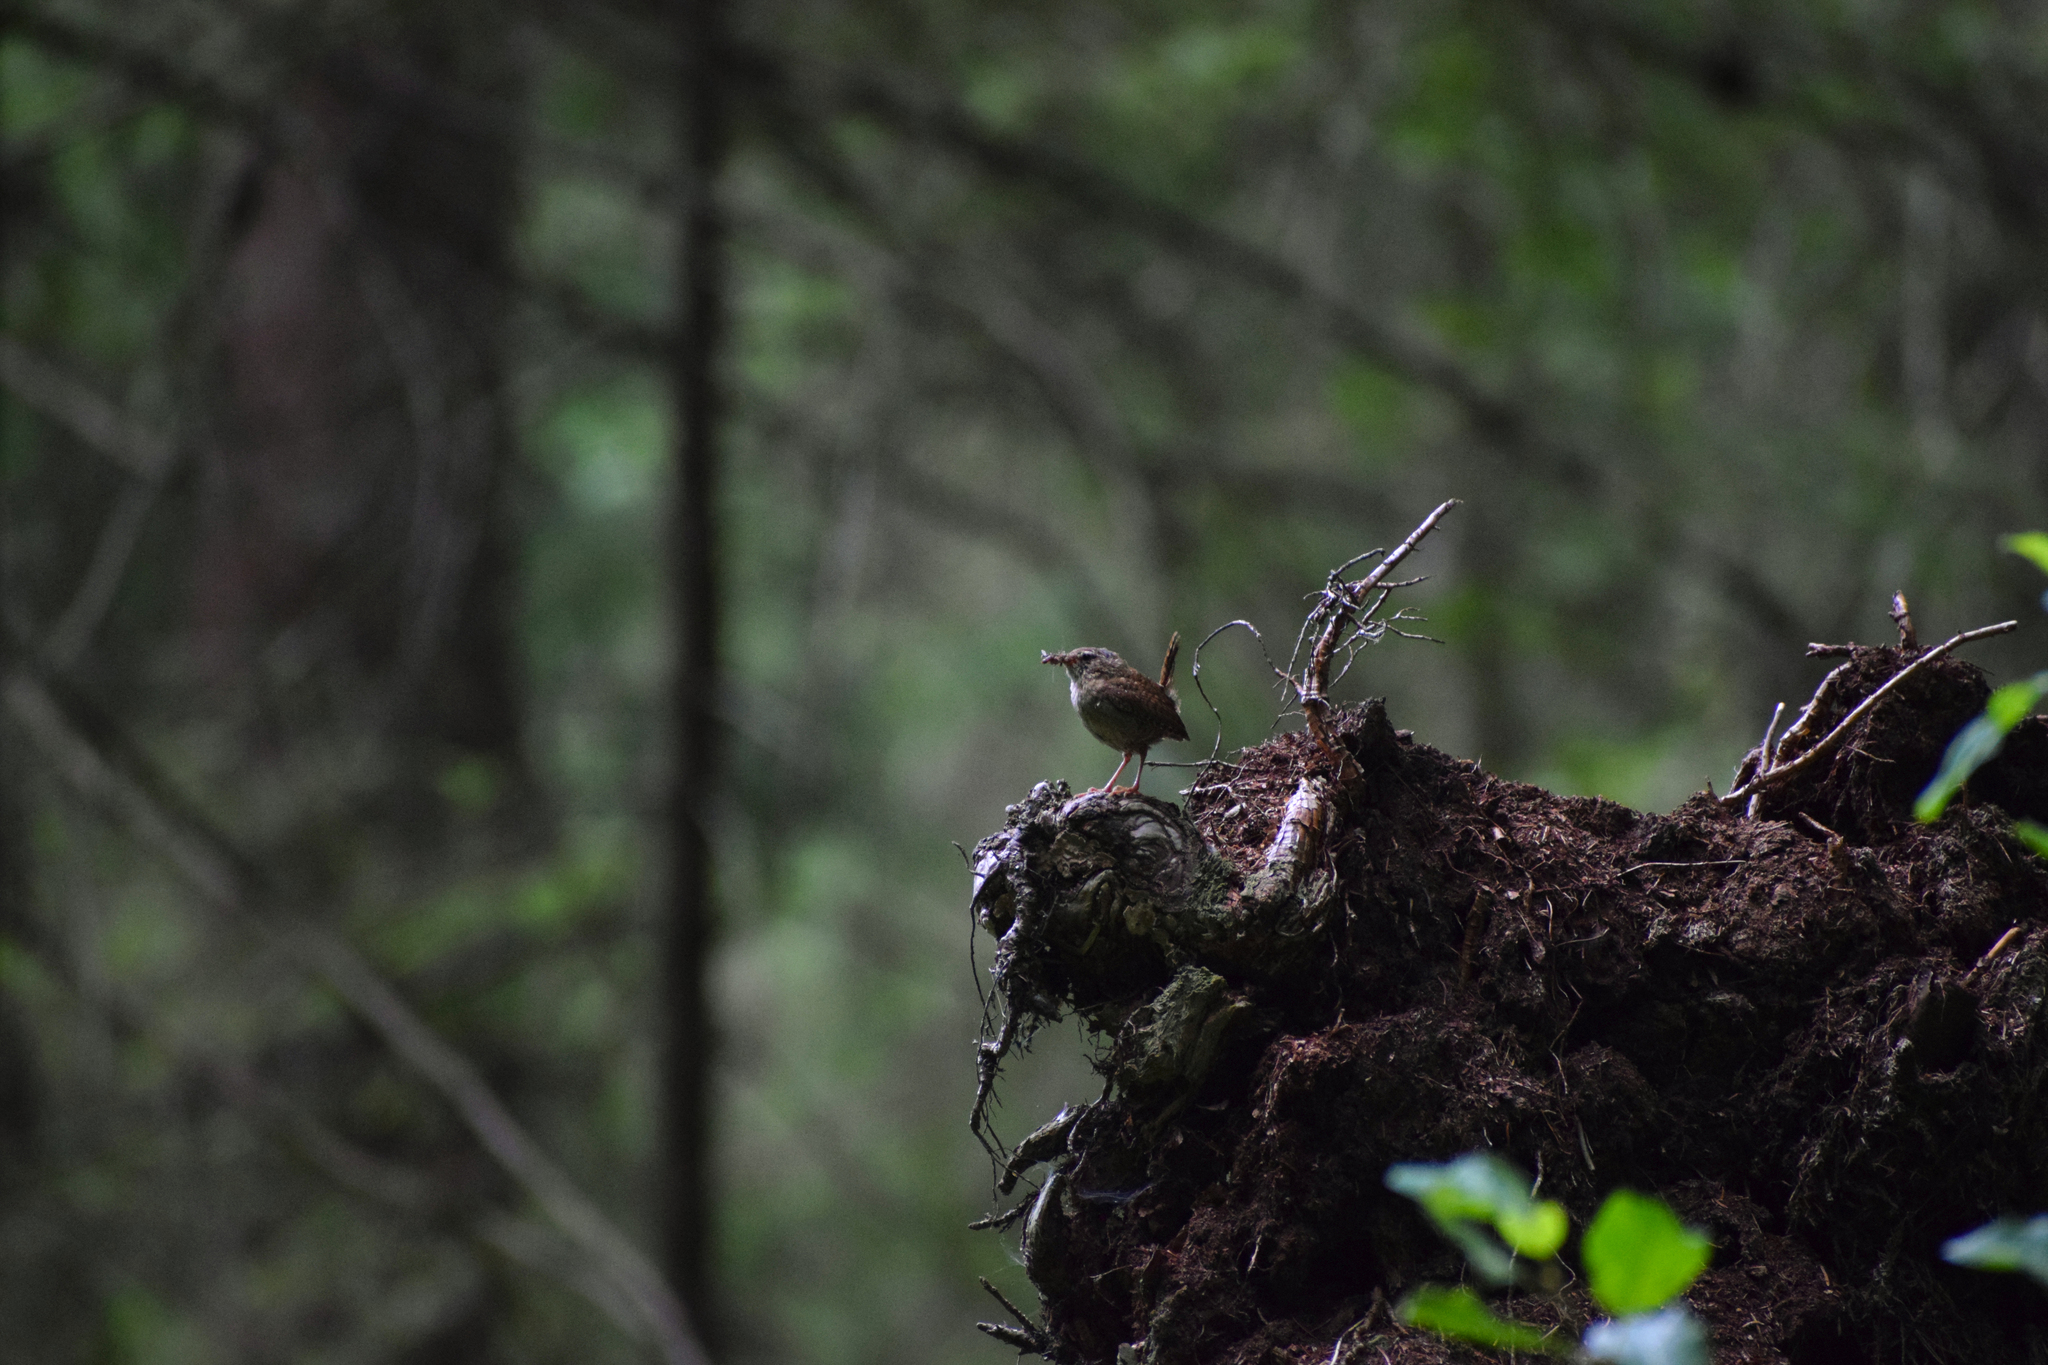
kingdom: Animalia
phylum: Chordata
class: Aves
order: Passeriformes
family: Troglodytidae
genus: Troglodytes
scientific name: Troglodytes troglodytes
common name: Eurasian wren
